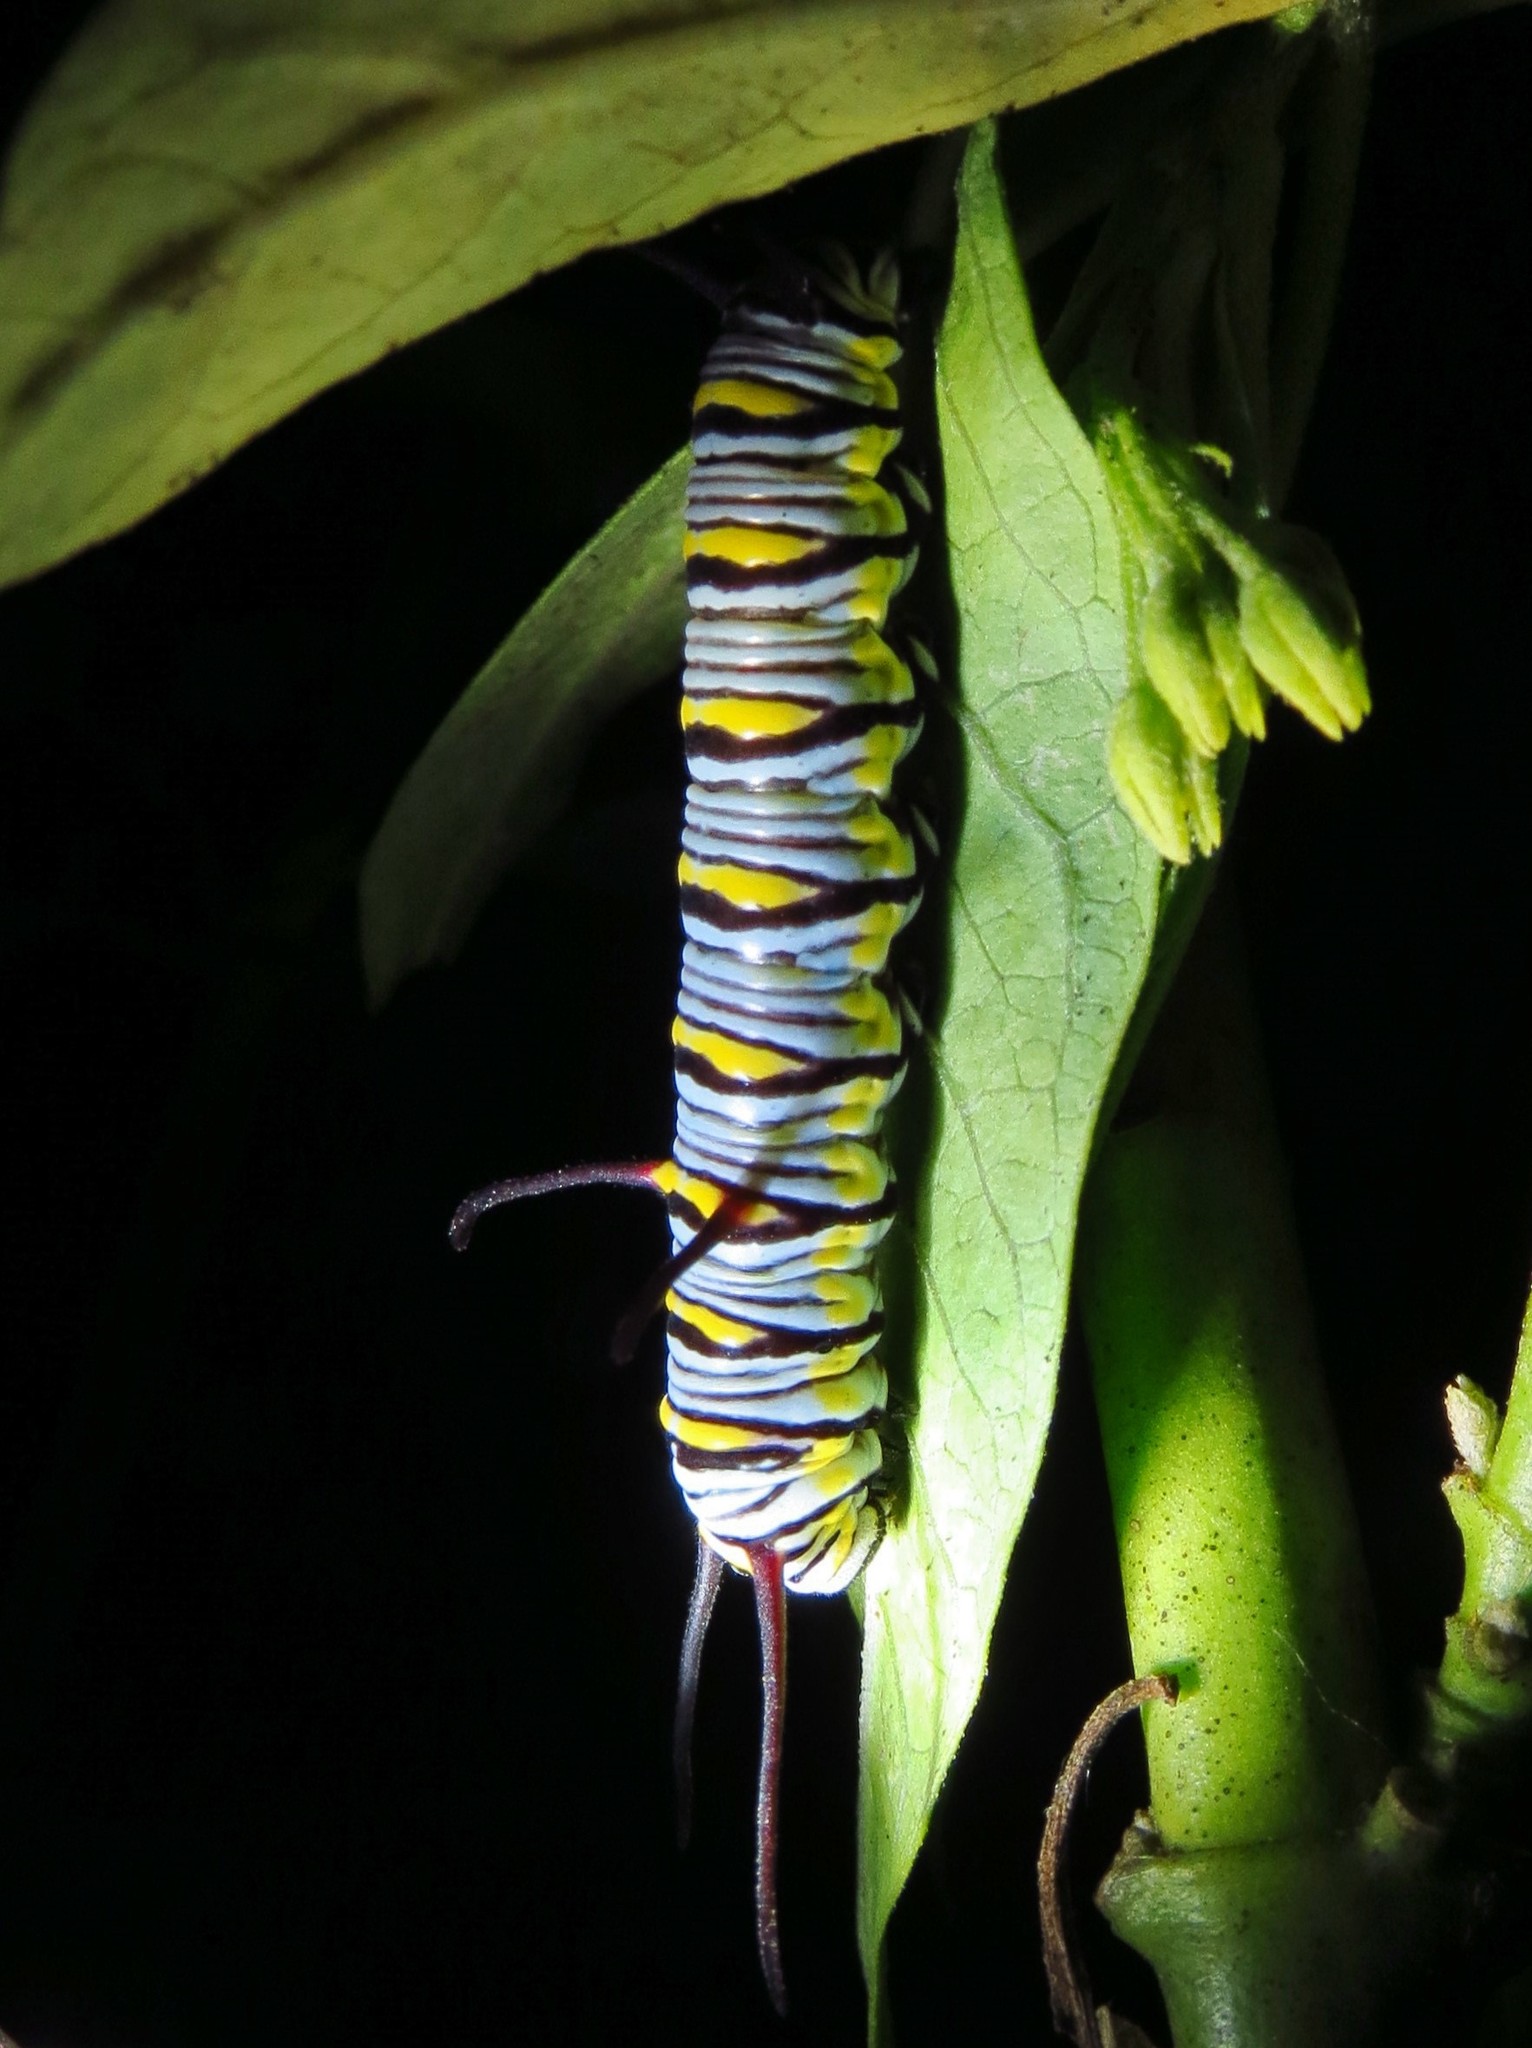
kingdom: Animalia
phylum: Arthropoda
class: Insecta
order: Lepidoptera
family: Nymphalidae
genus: Danaus
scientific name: Danaus gilippus
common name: Queen
